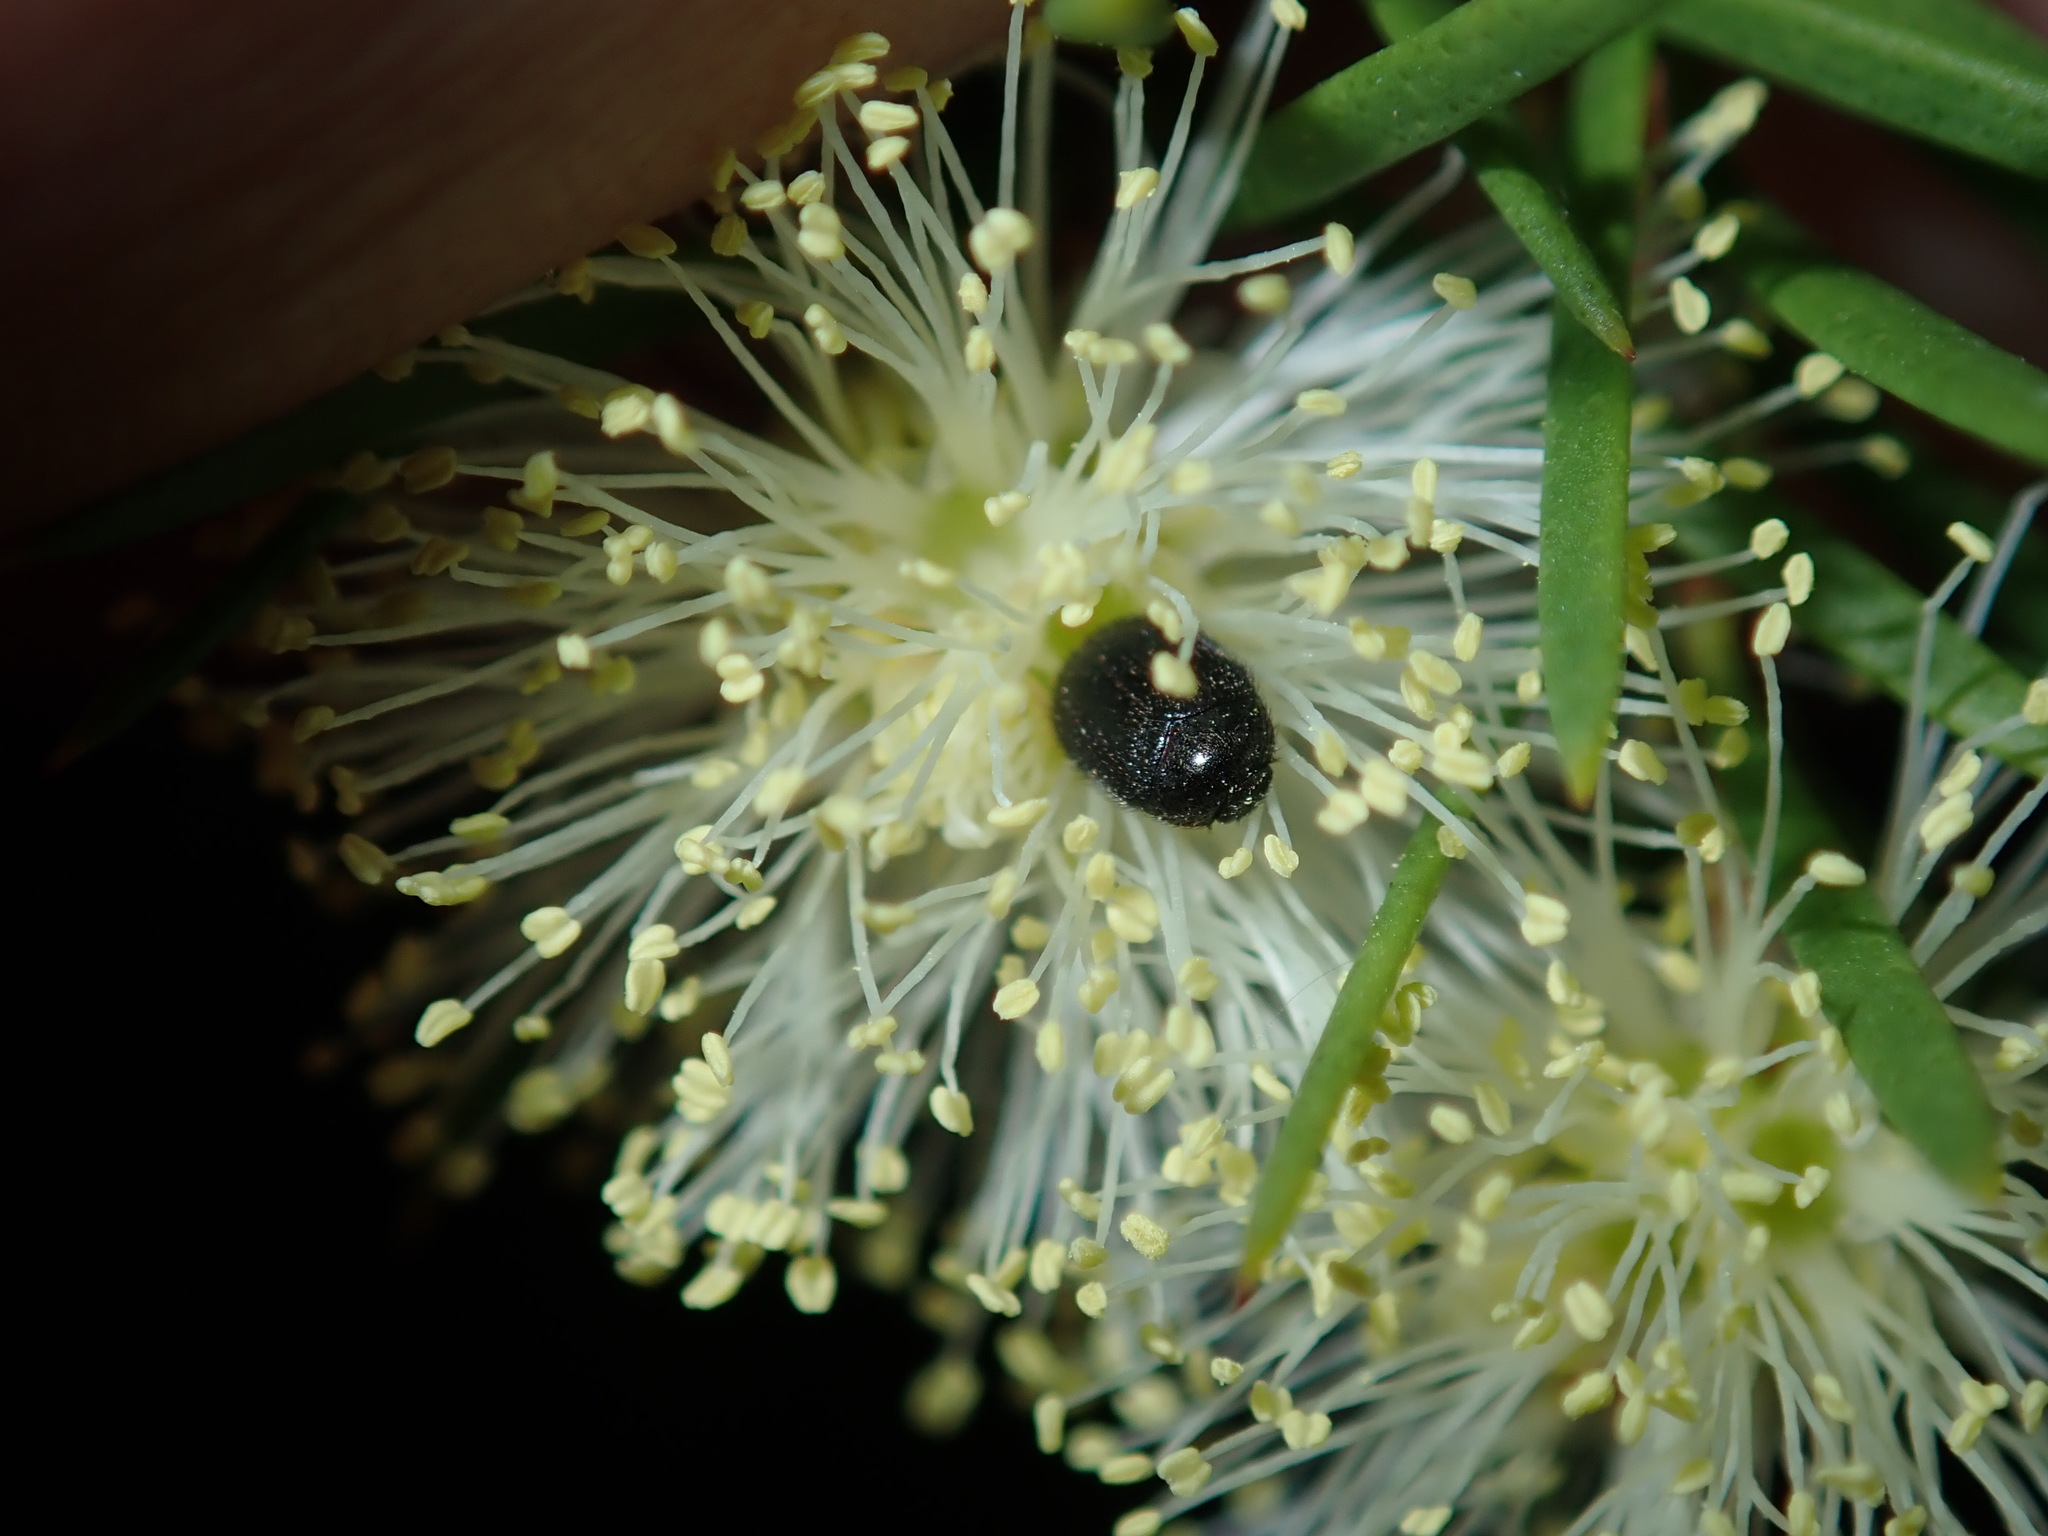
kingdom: Plantae
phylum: Tracheophyta
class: Magnoliopsida
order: Myrtales
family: Myrtaceae
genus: Melaleuca
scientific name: Melaleuca nodosa
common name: Prickly-leaf paperbark
